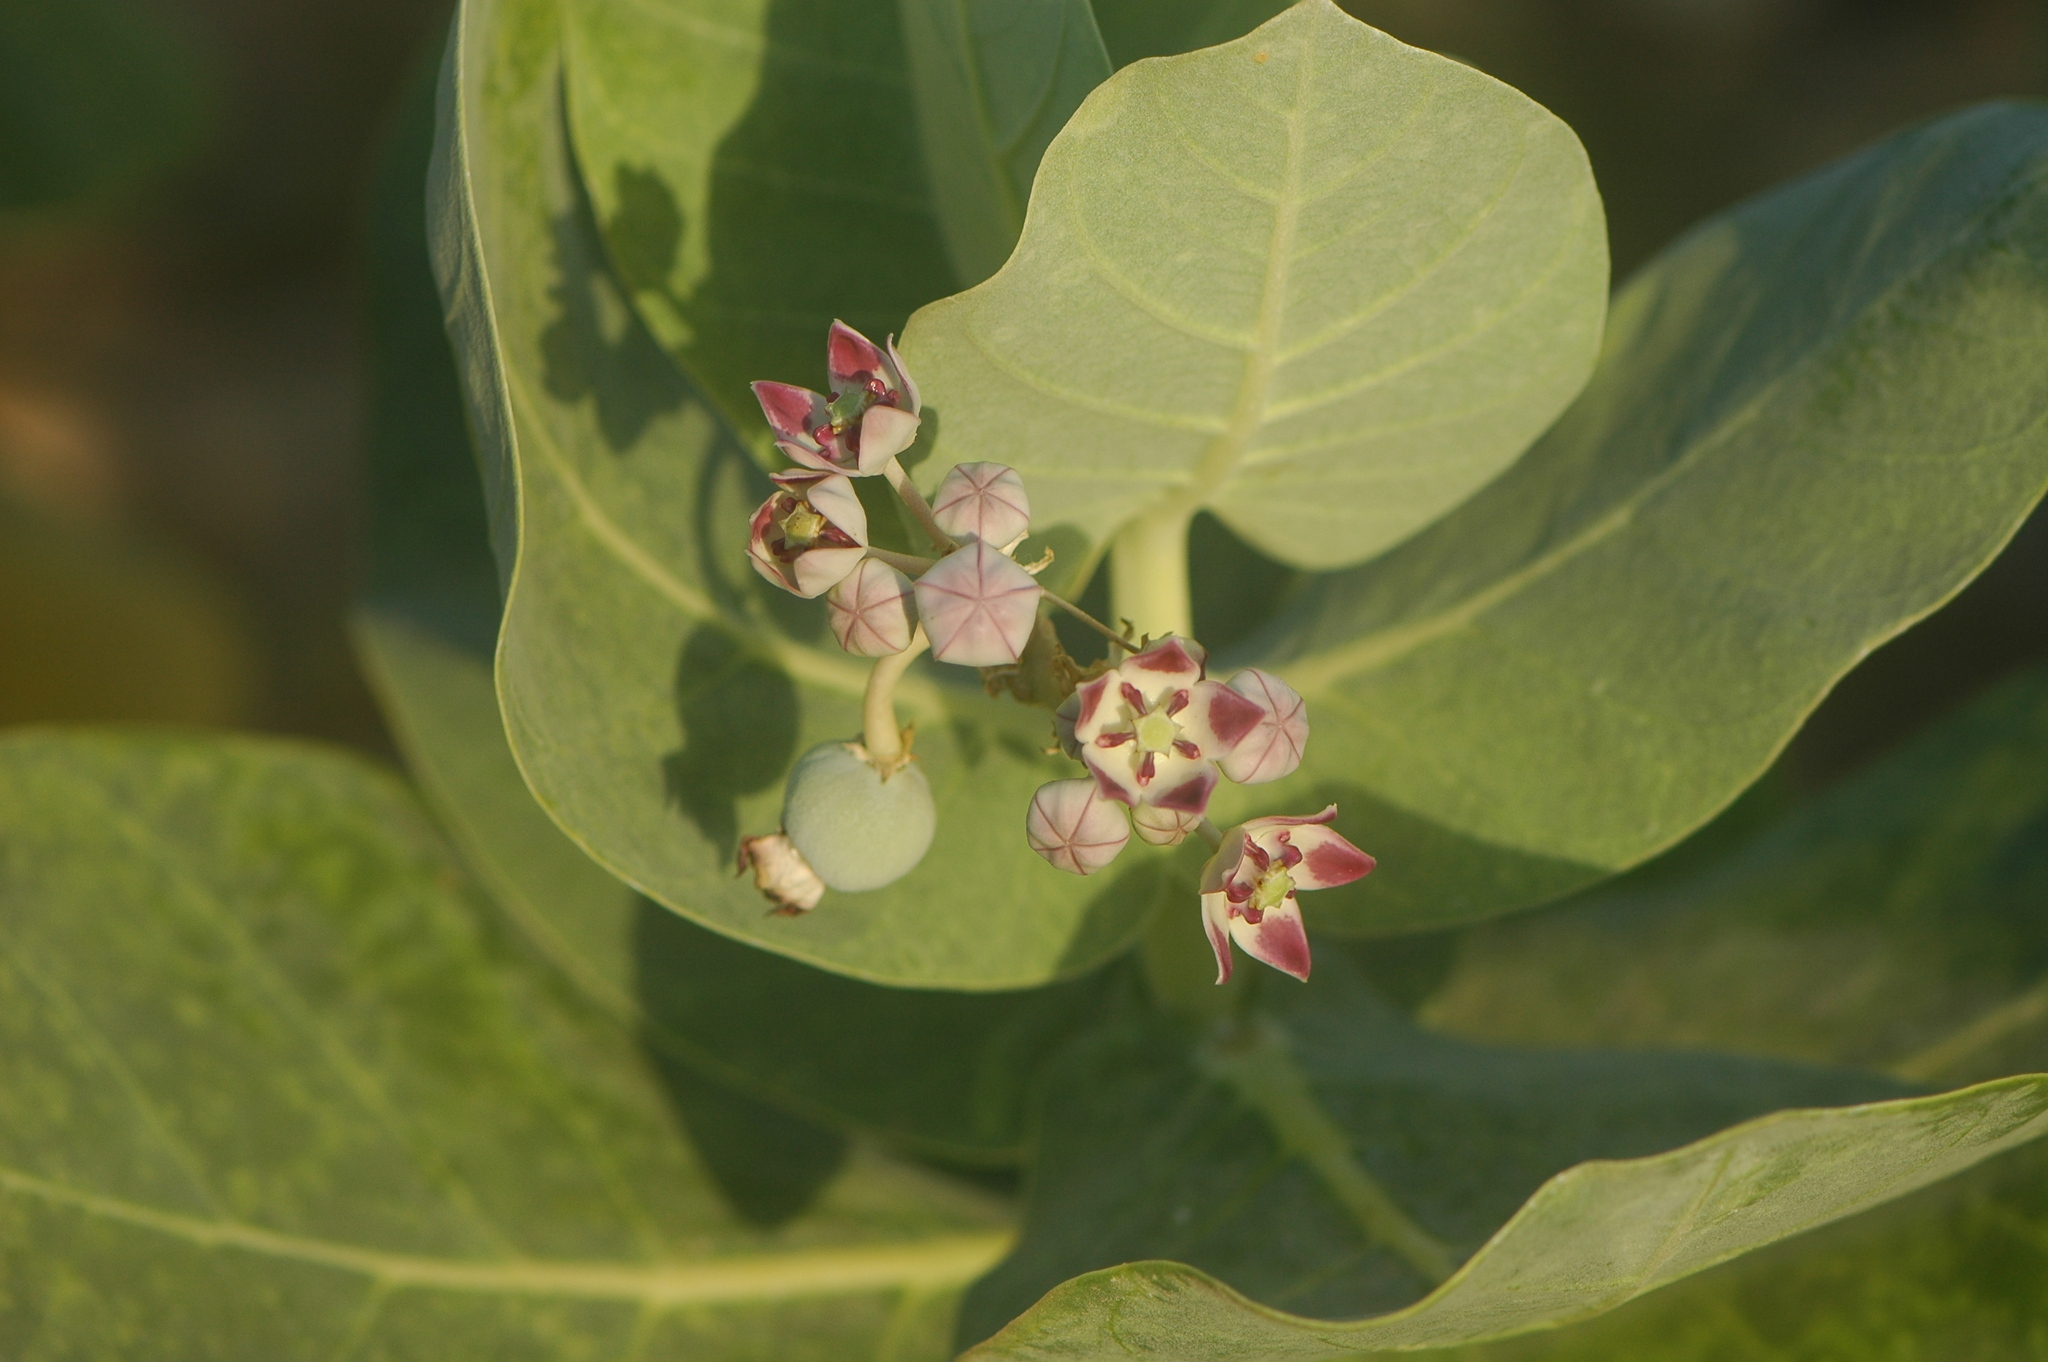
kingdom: Plantae
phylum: Tracheophyta
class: Magnoliopsida
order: Gentianales
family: Apocynaceae
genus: Calotropis
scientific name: Calotropis procera
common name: Roostertree
